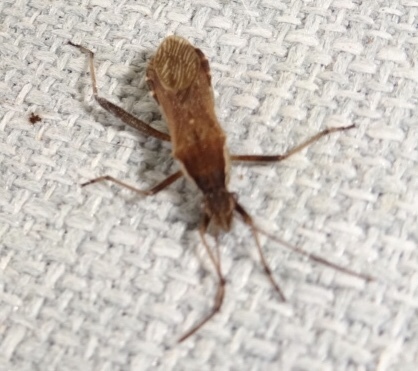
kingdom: Animalia
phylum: Arthropoda
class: Insecta
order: Hemiptera
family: Alydidae
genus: Alydus
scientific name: Alydus pilosulus
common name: Broad-headed bug
